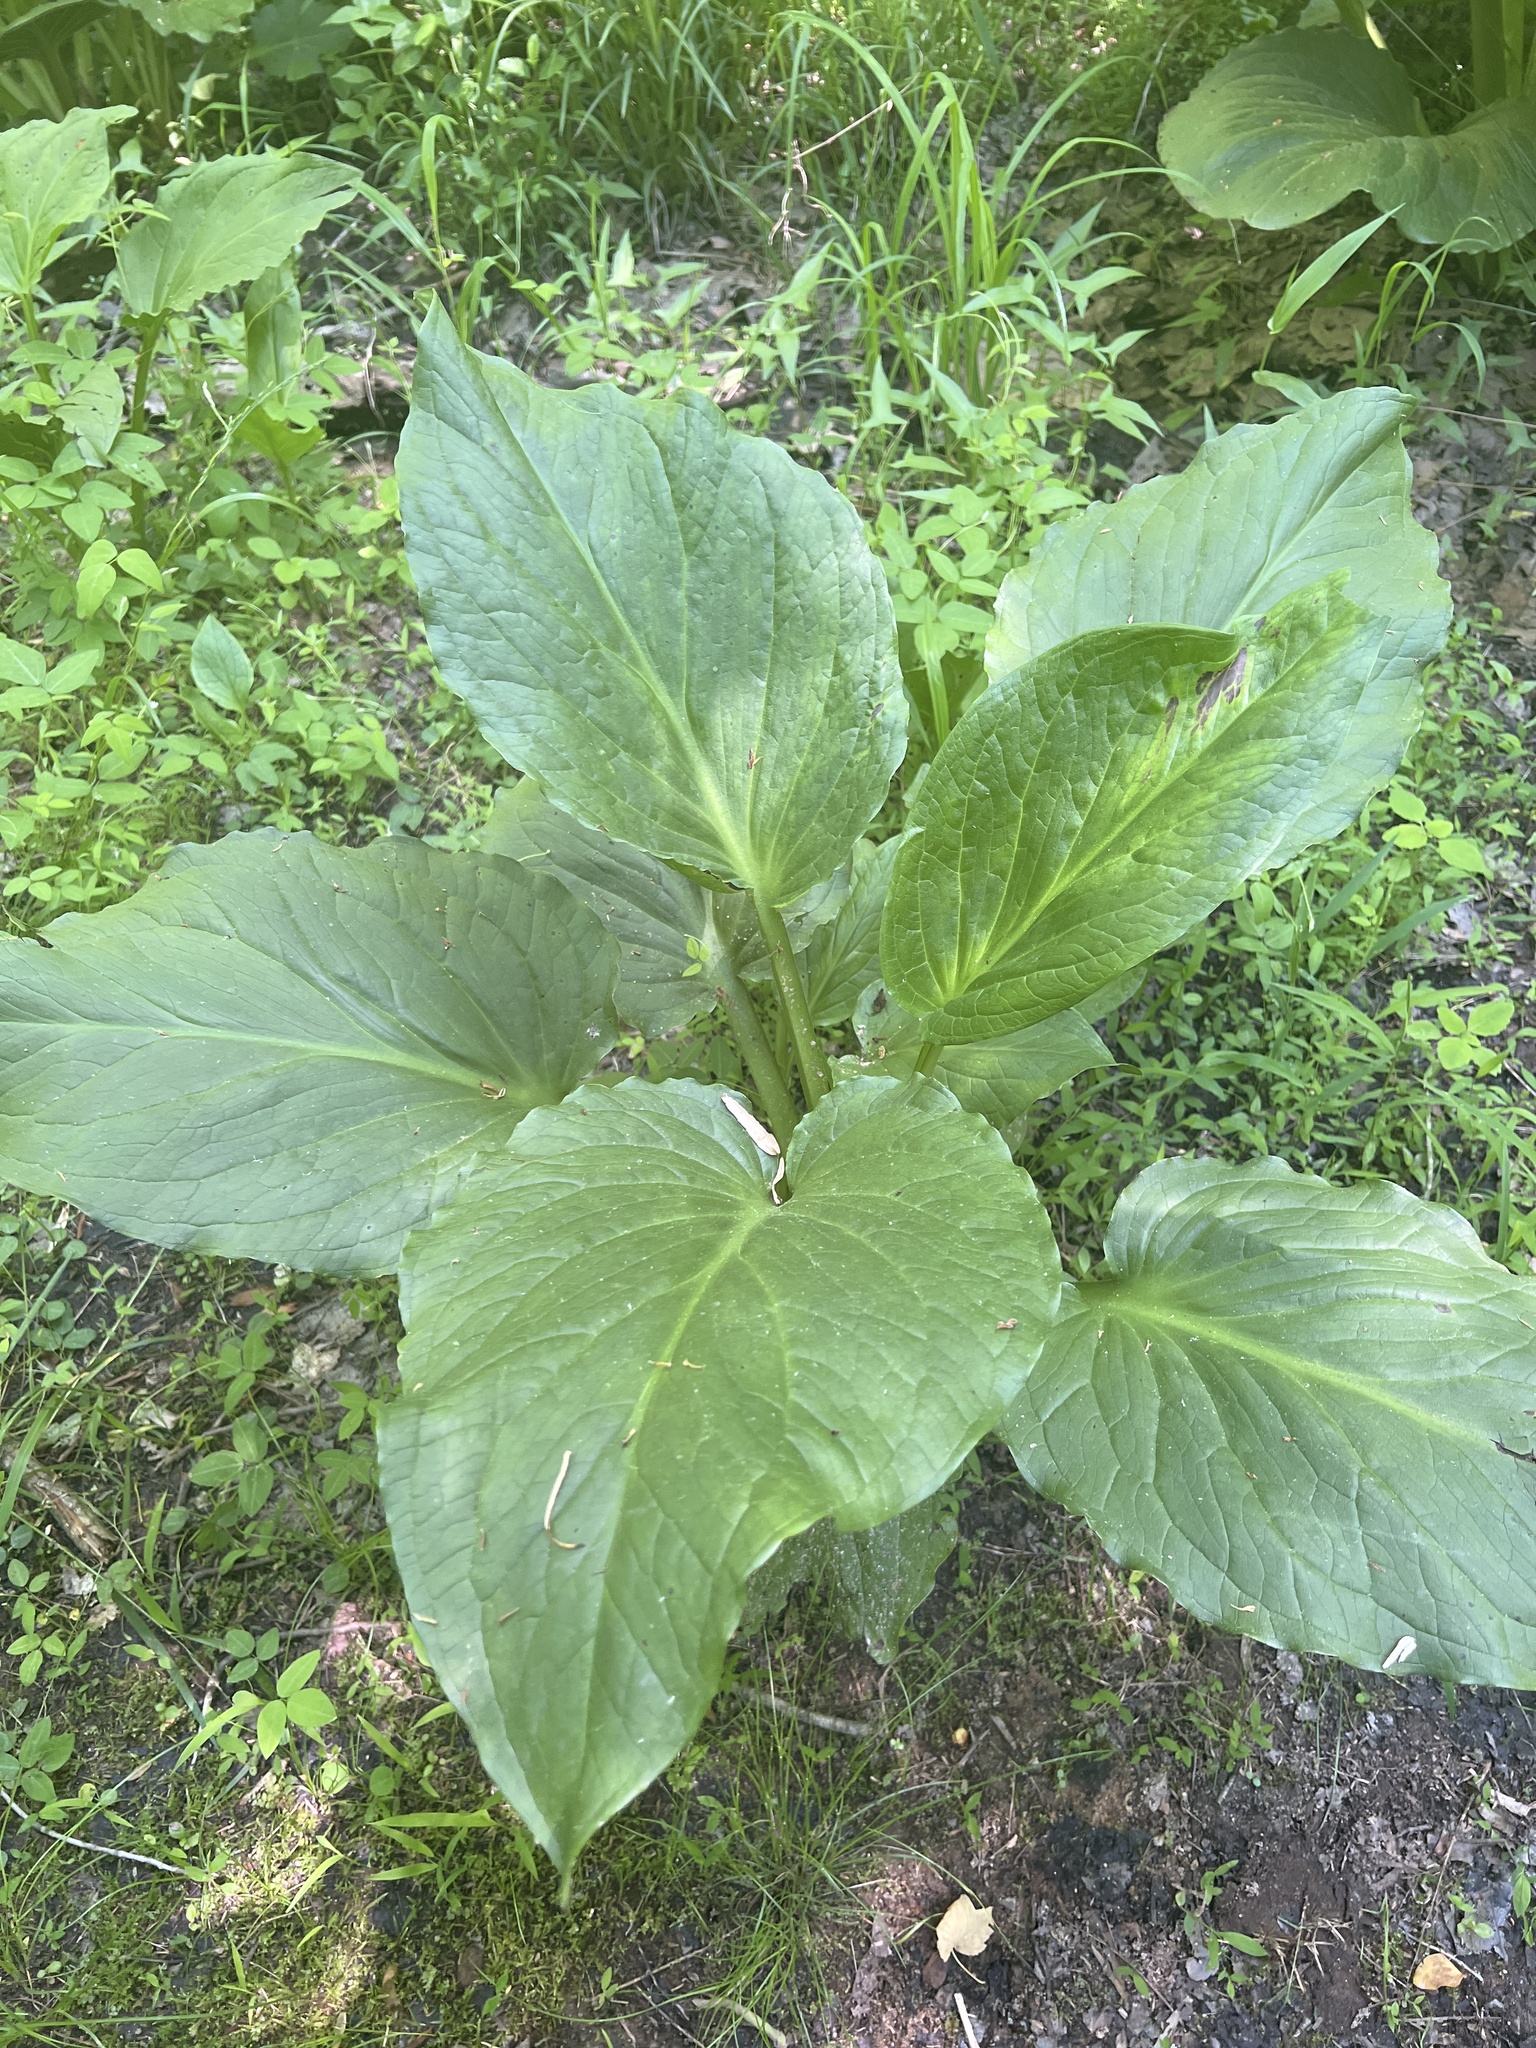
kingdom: Plantae
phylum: Tracheophyta
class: Liliopsida
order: Alismatales
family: Araceae
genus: Symplocarpus
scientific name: Symplocarpus foetidus
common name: Eastern skunk cabbage
